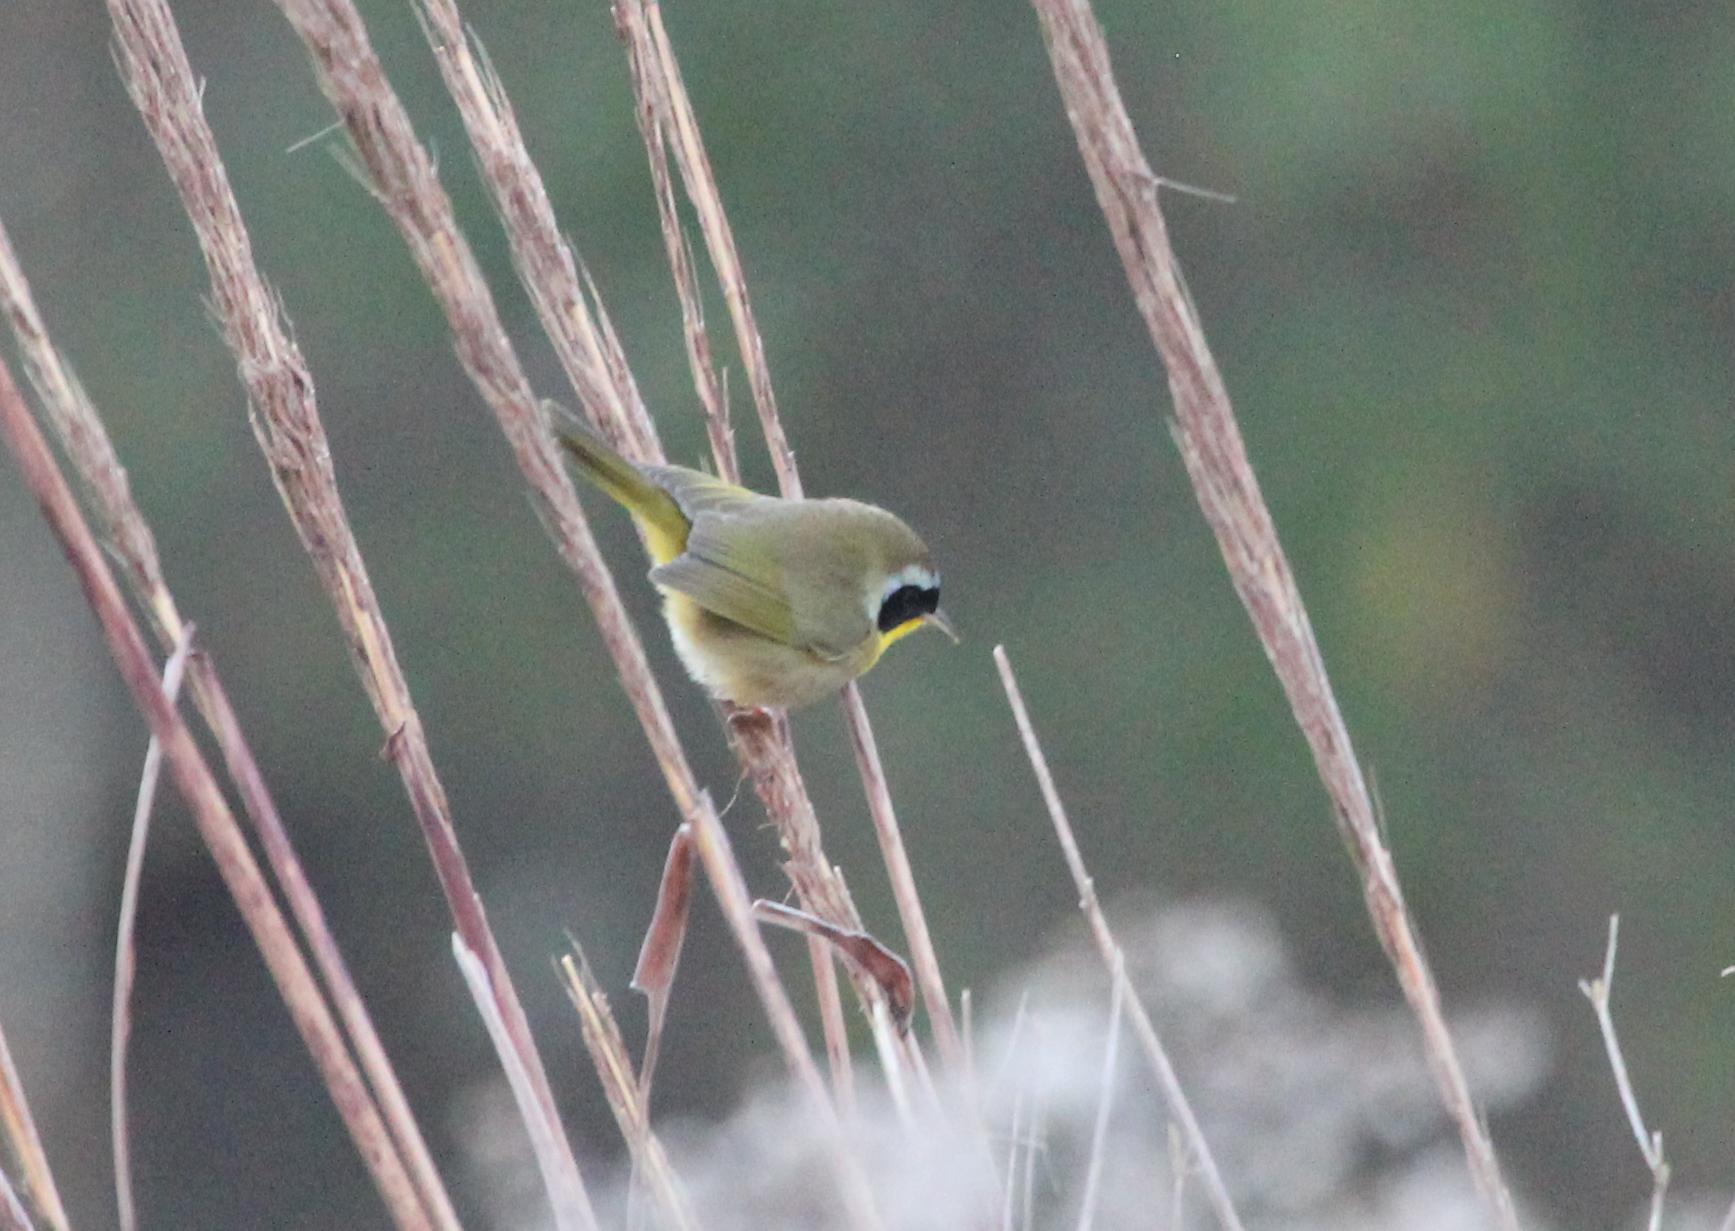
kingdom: Animalia
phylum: Chordata
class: Aves
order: Passeriformes
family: Parulidae
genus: Geothlypis
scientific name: Geothlypis trichas
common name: Common yellowthroat
